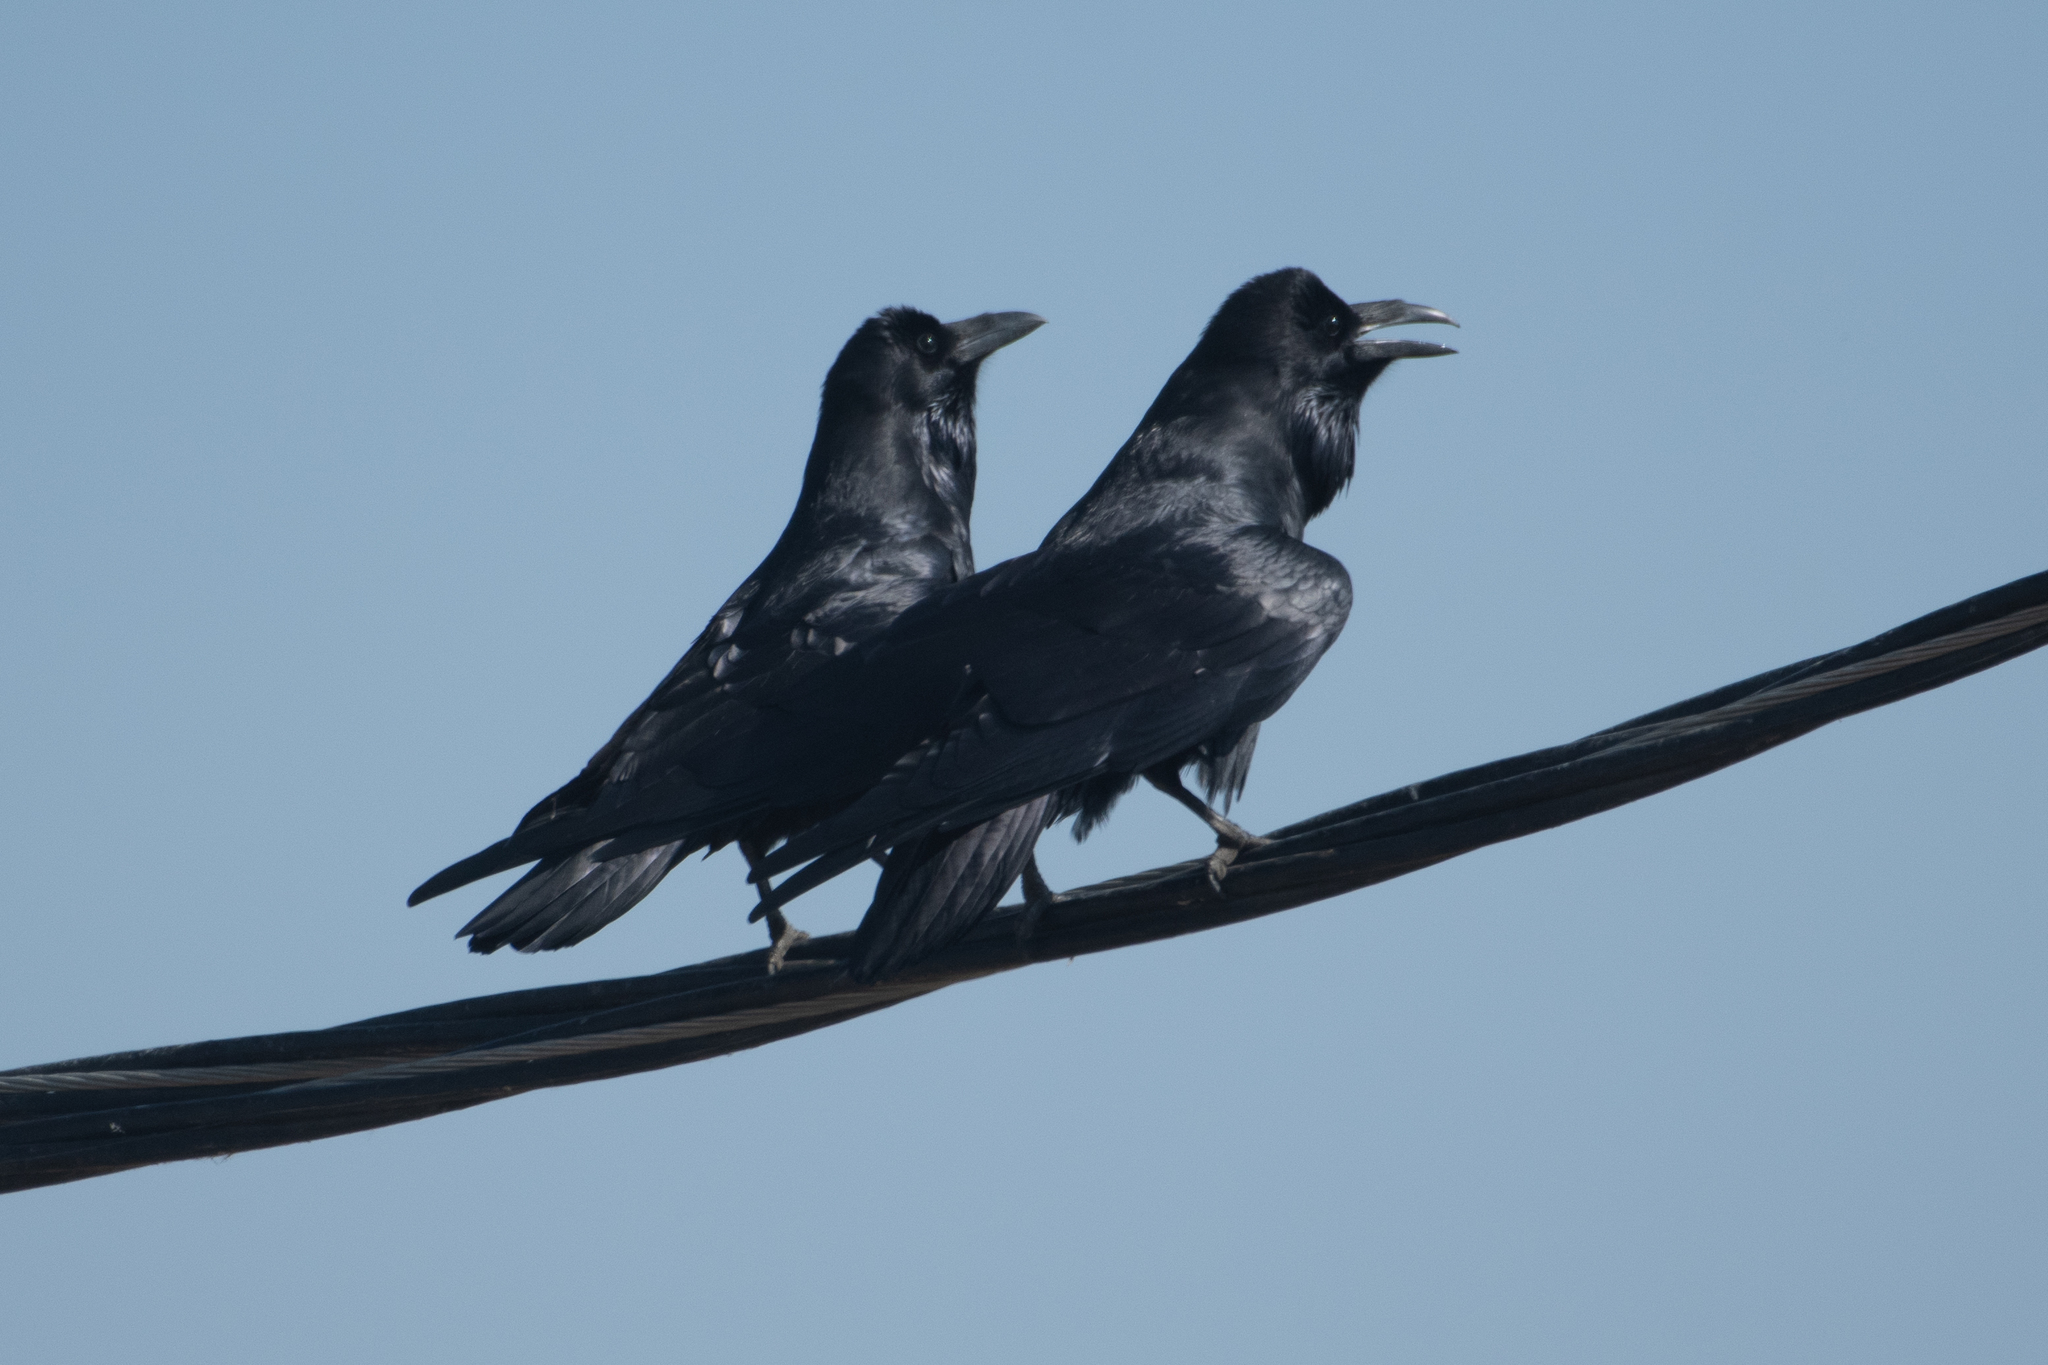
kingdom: Animalia
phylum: Chordata
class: Aves
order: Passeriformes
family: Corvidae
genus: Corvus
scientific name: Corvus corax
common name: Common raven
